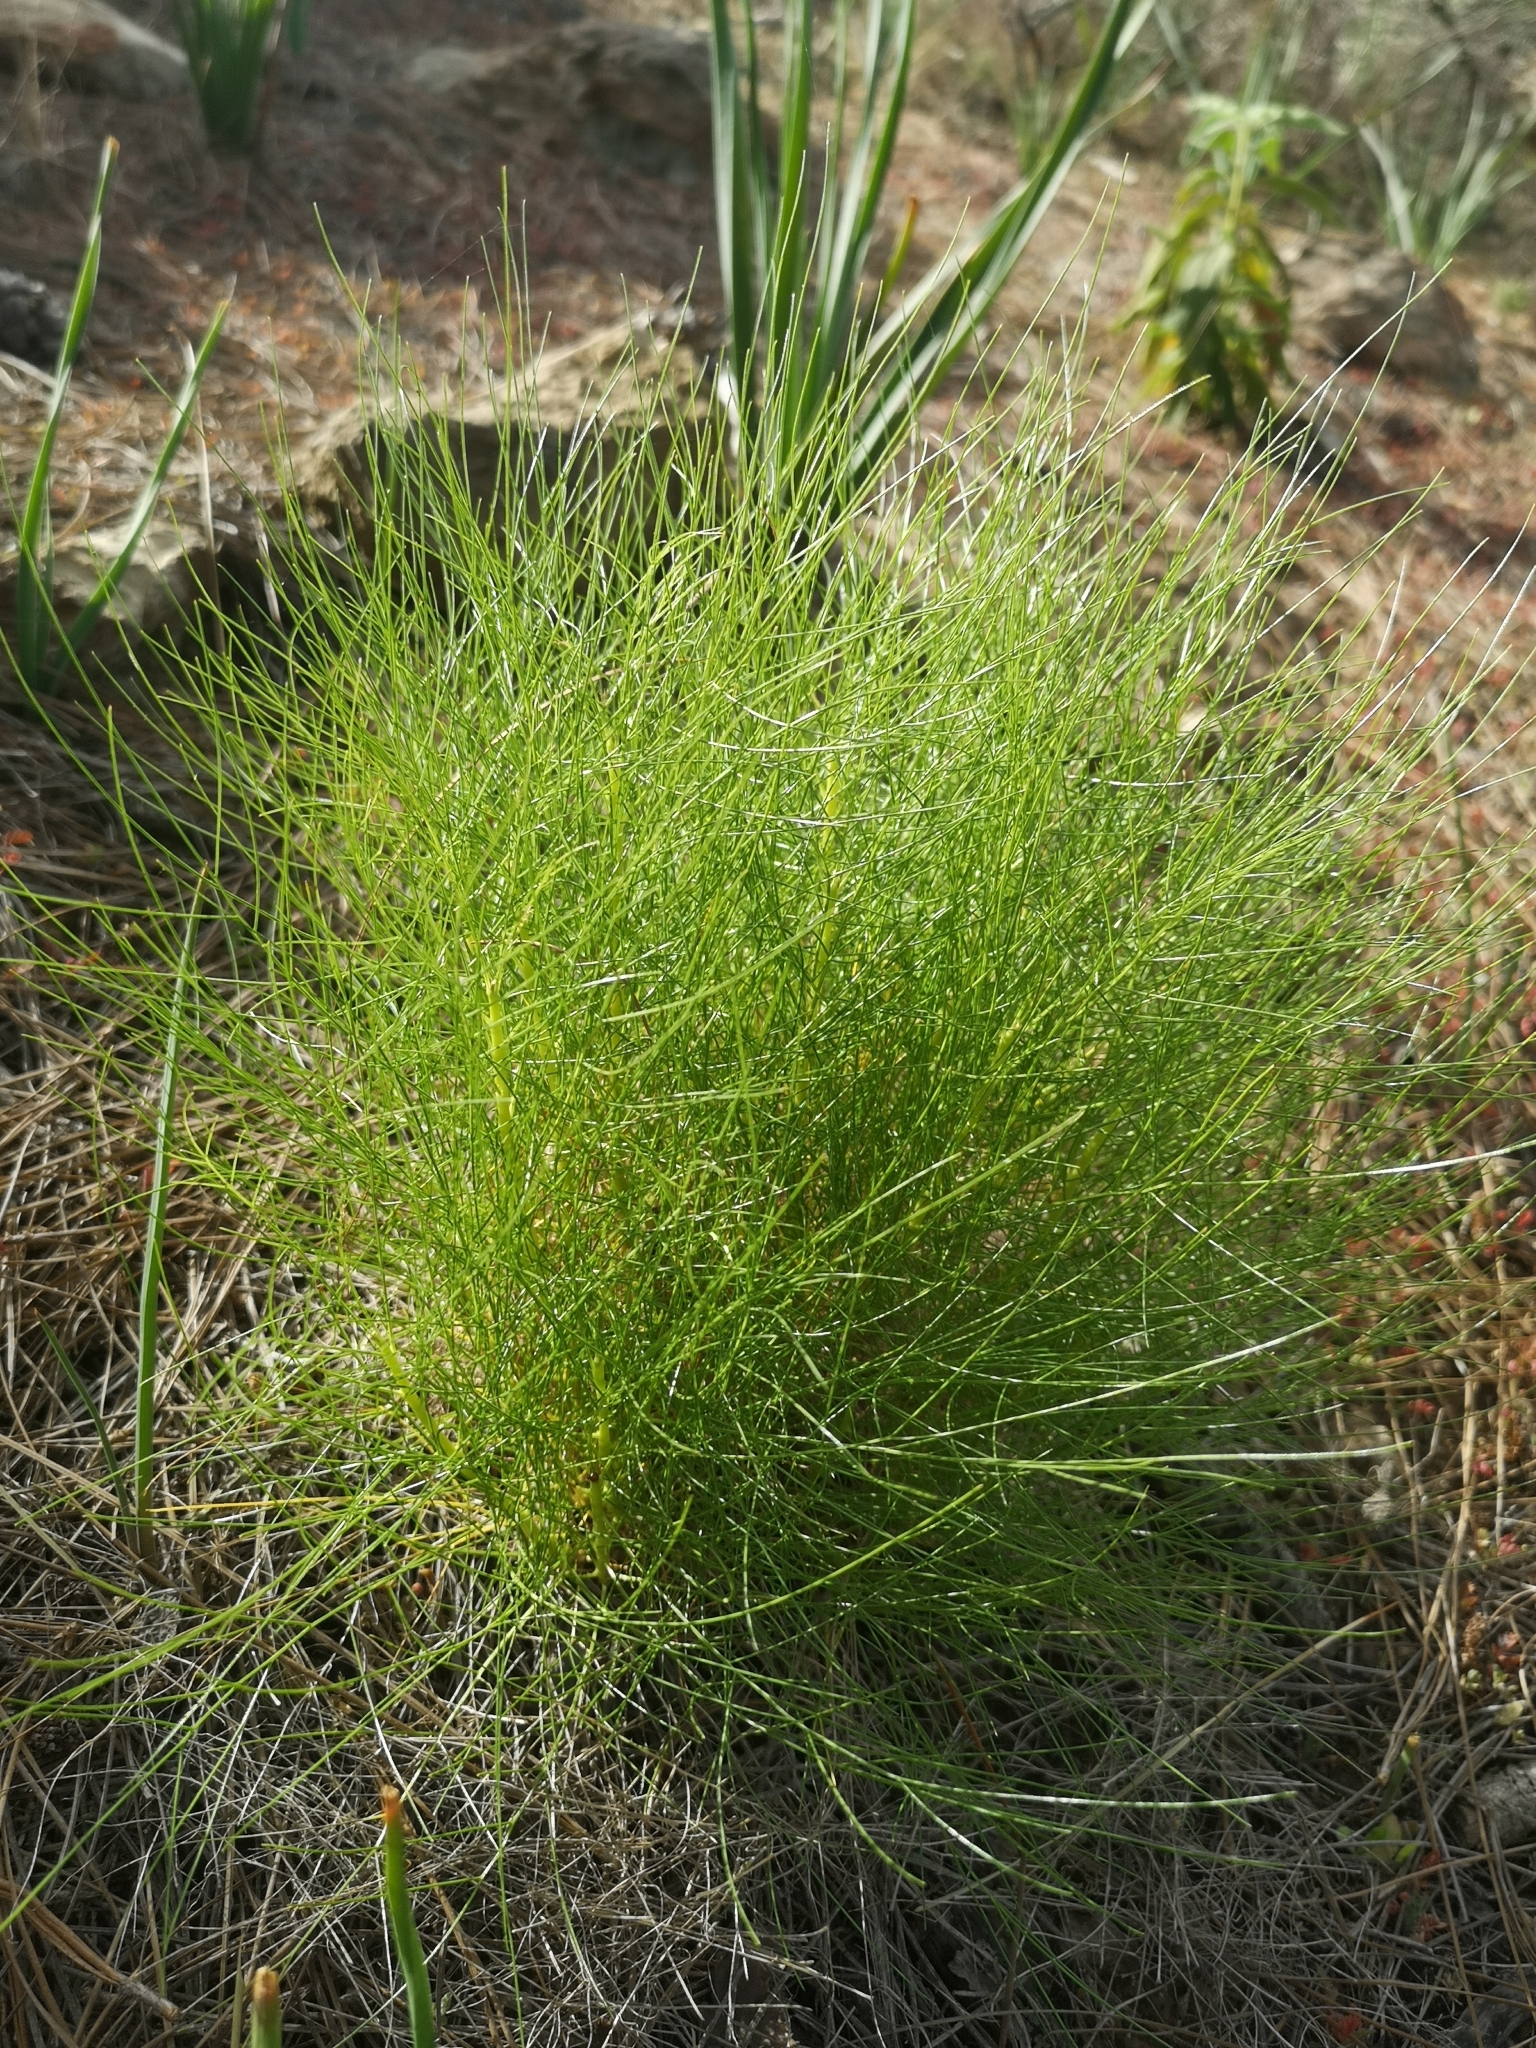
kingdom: Plantae
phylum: Tracheophyta
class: Pinopsida
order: Pinales
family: Pinaceae
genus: Pinus
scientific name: Pinus canariensis
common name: Canary islands pine
